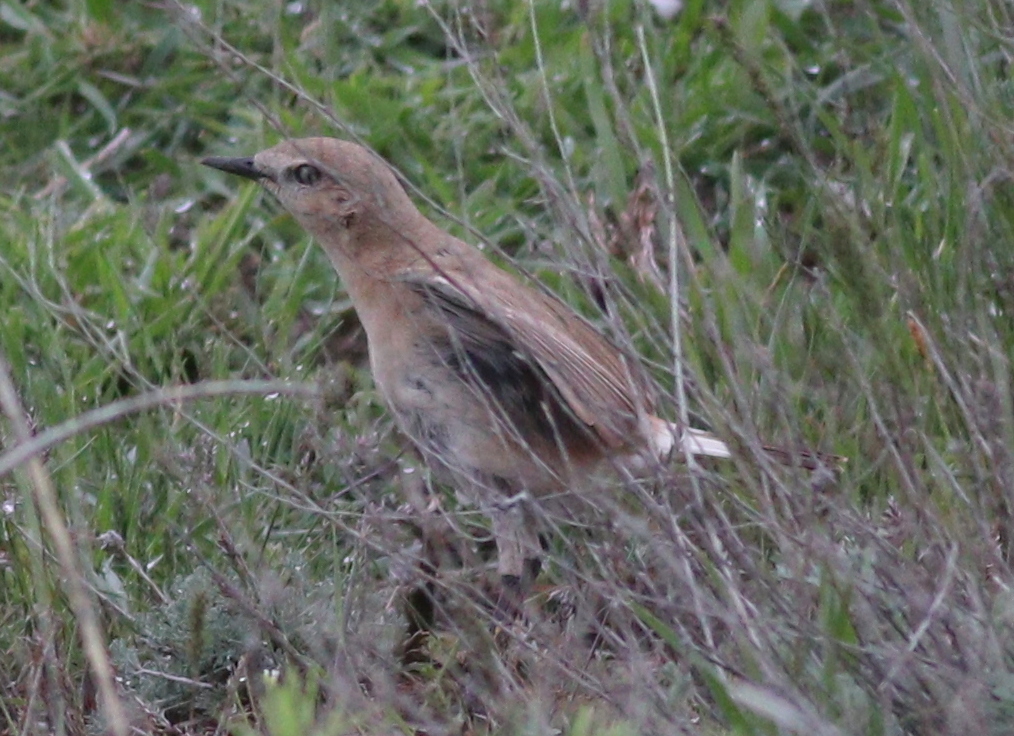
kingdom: Animalia
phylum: Chordata
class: Aves
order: Passeriformes
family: Muscicapidae
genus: Oenanthe
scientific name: Oenanthe isabellina
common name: Isabelline wheatear
